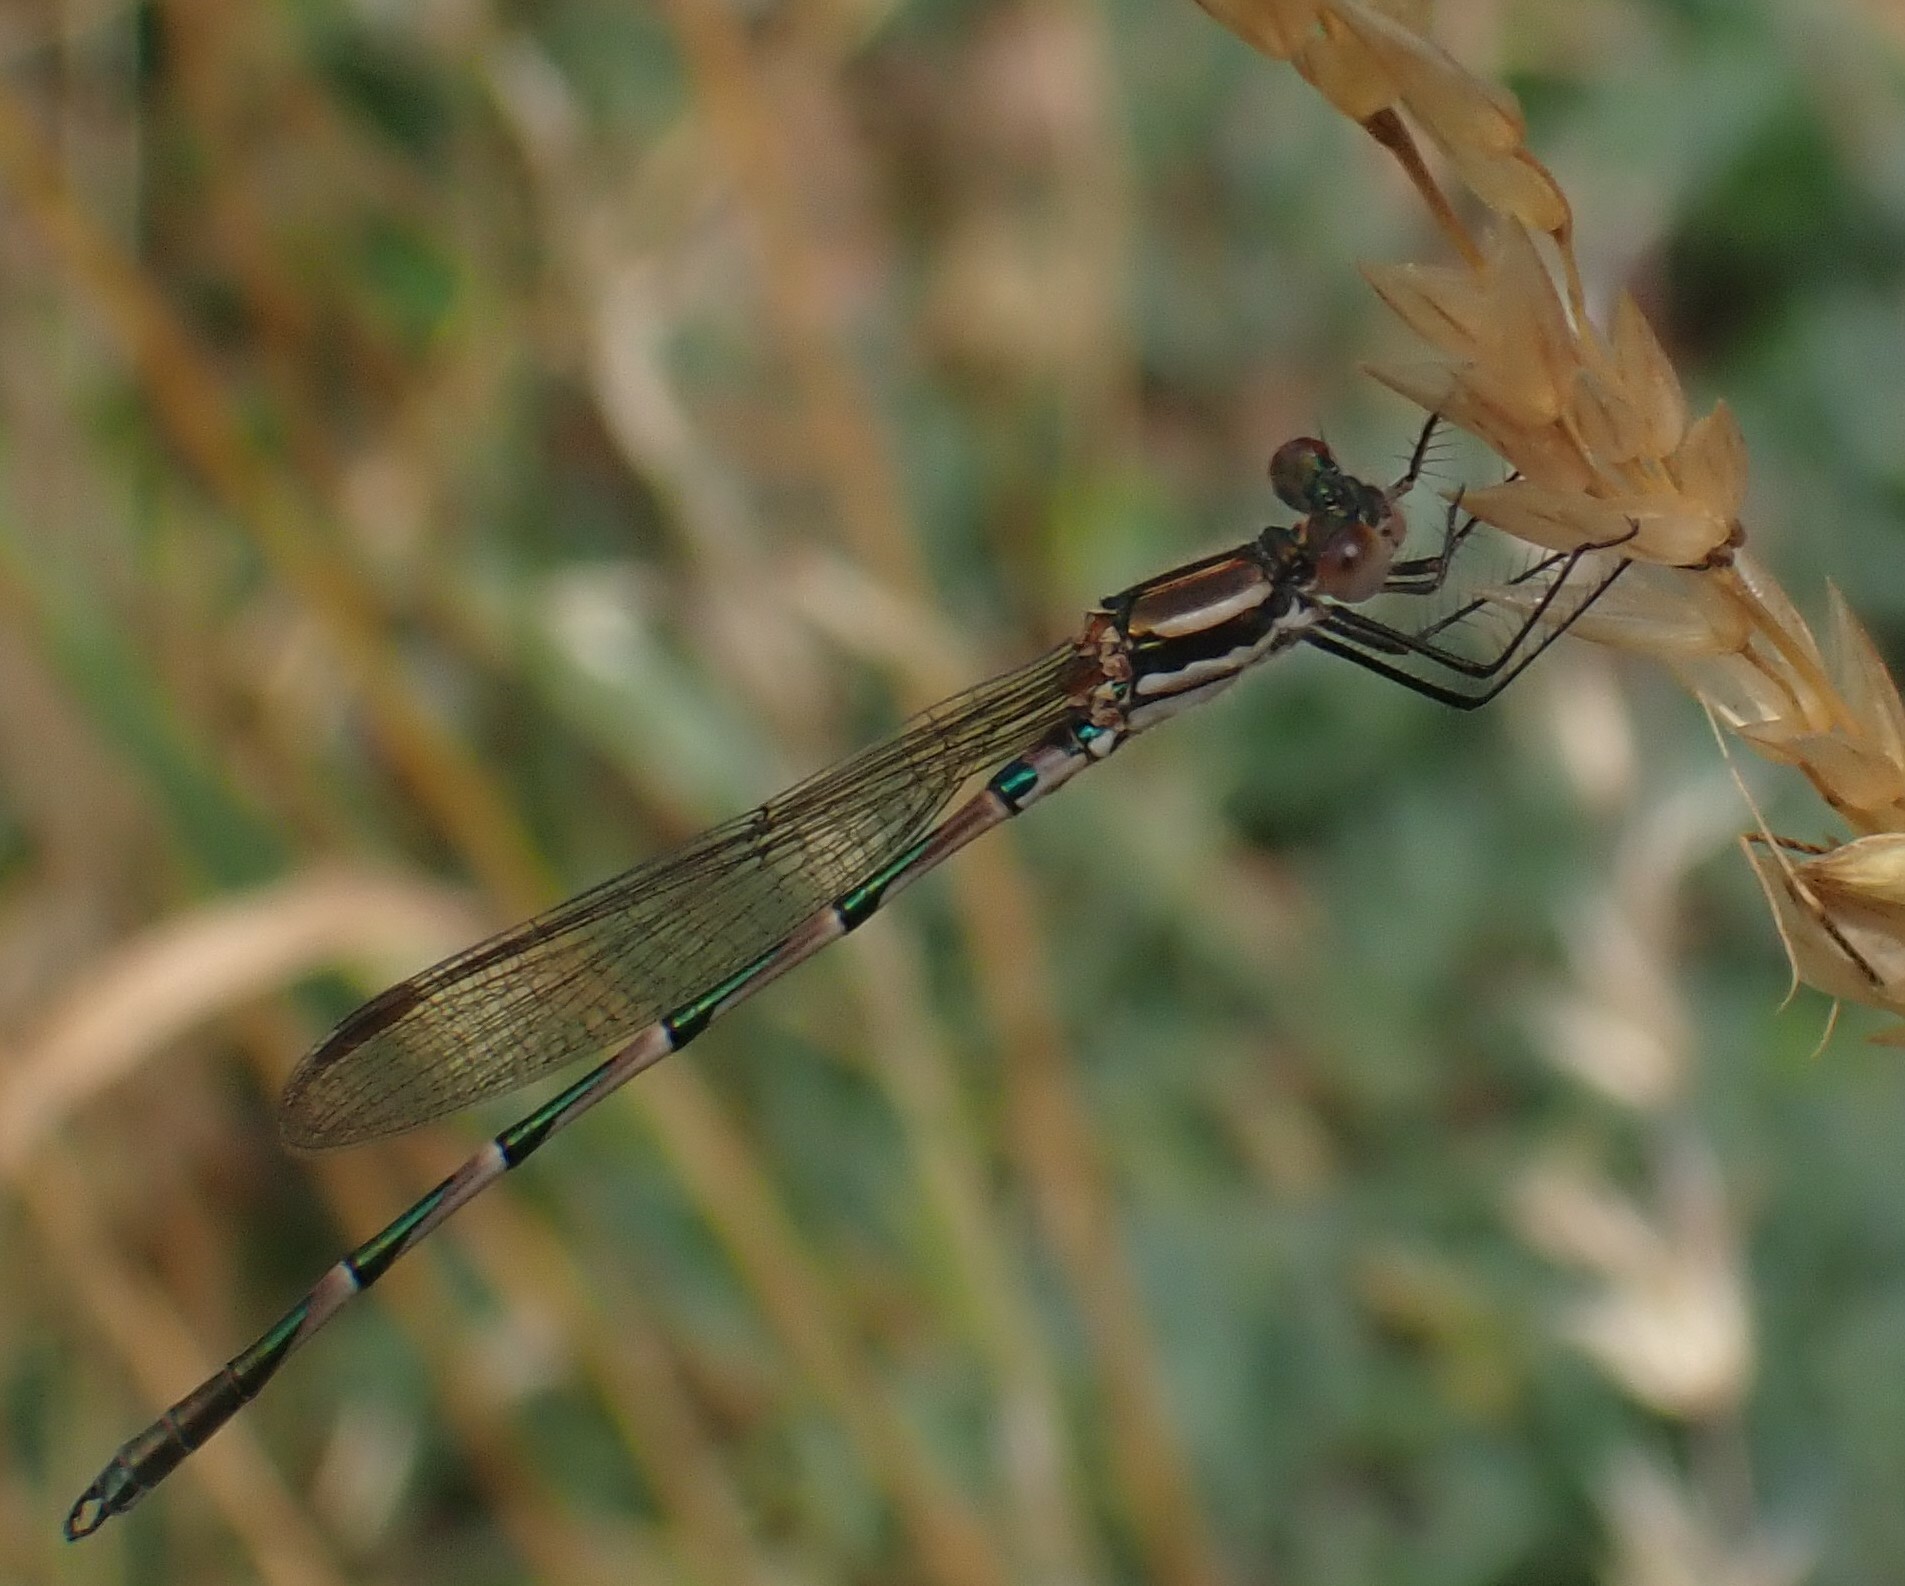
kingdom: Animalia
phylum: Arthropoda
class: Insecta
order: Odonata
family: Lestidae
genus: Austrolestes
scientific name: Austrolestes annulosus
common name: Blue ringtail
